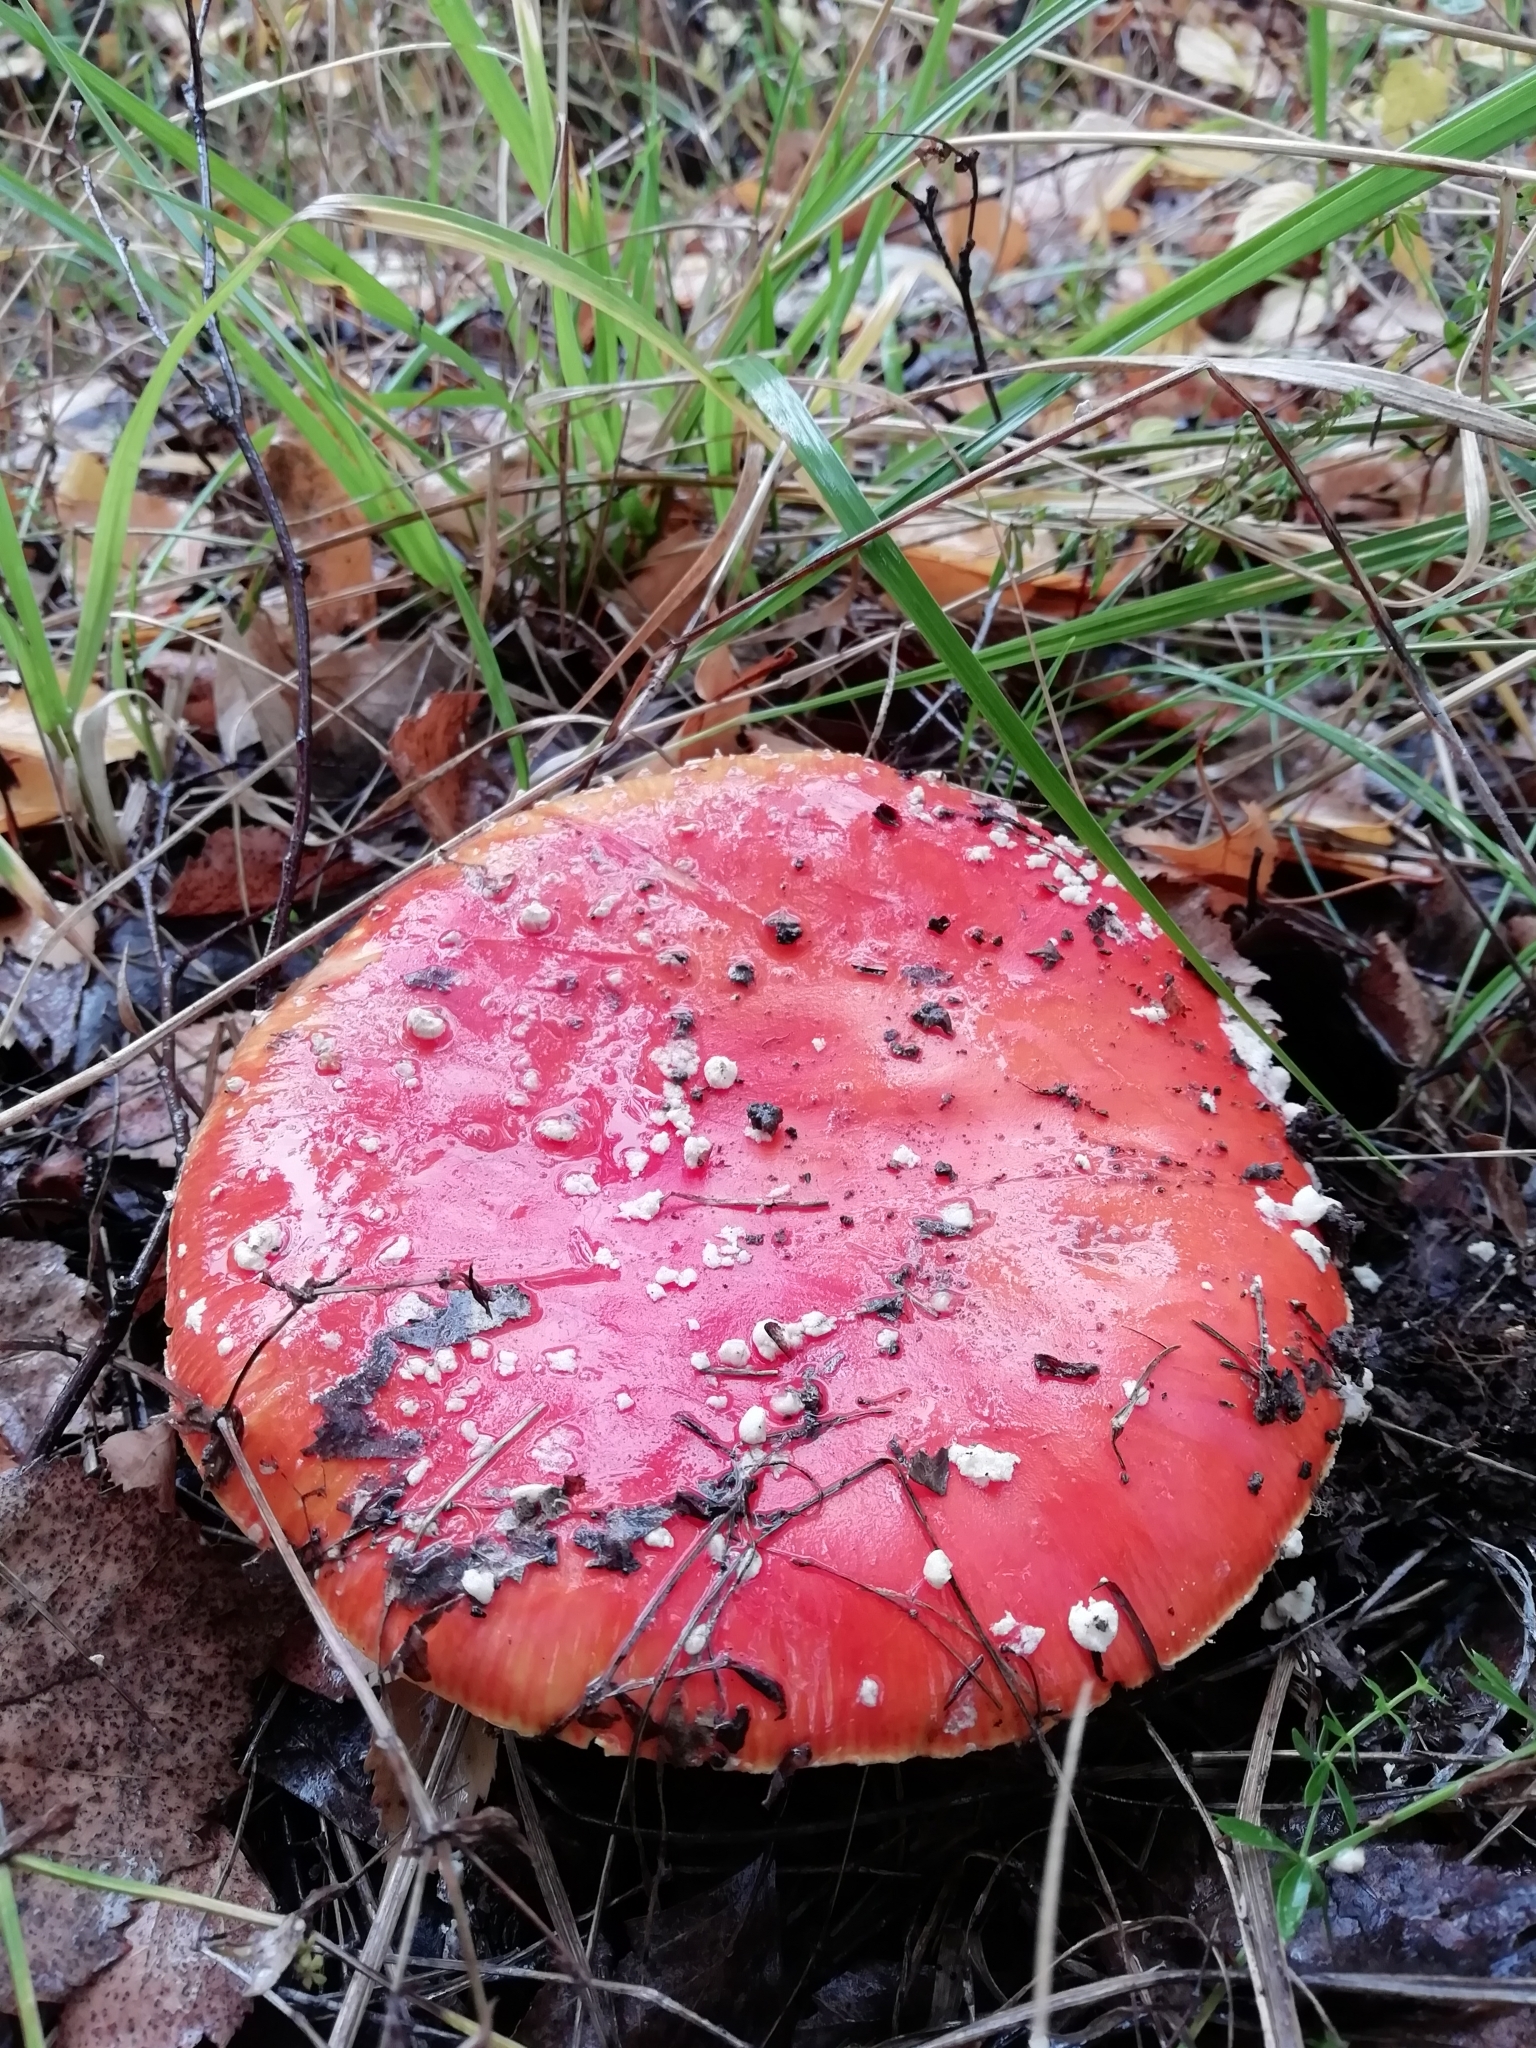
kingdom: Fungi
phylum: Basidiomycota
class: Agaricomycetes
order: Agaricales
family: Amanitaceae
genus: Amanita
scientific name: Amanita muscaria
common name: Fly agaric
